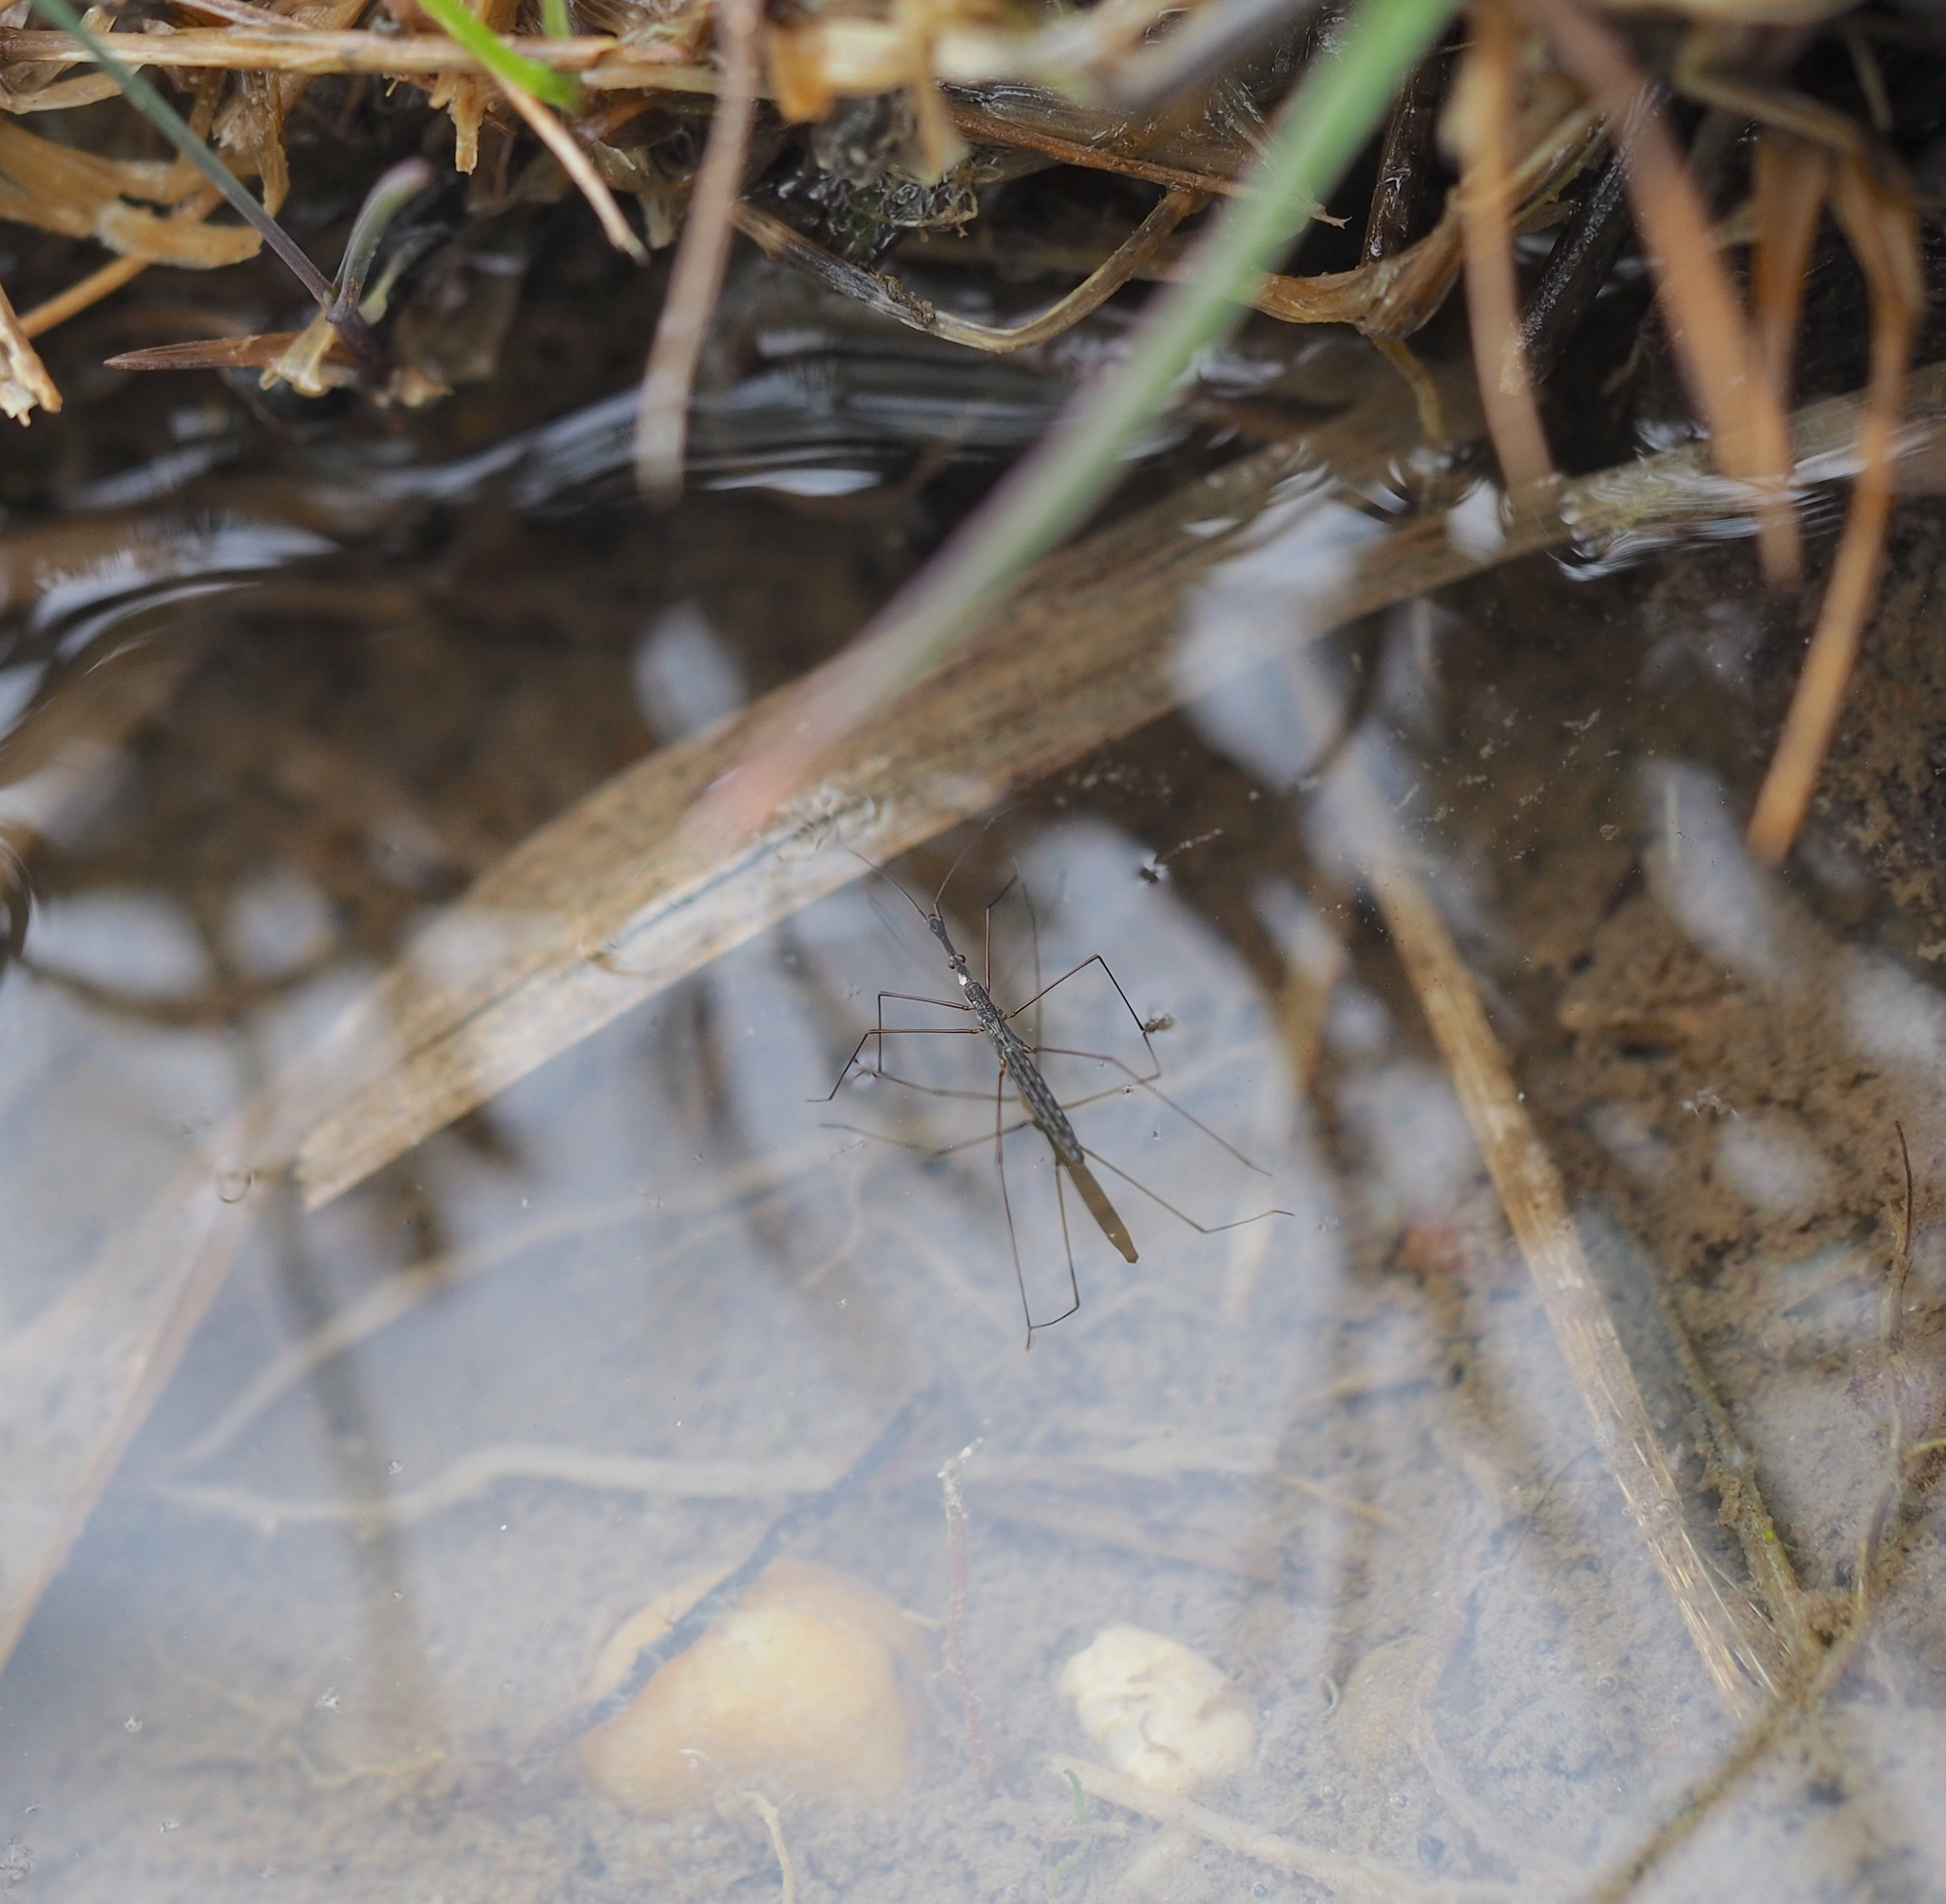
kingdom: Animalia
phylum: Arthropoda
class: Insecta
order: Hemiptera
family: Hydrometridae
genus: Hydrometra
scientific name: Hydrometra stagnorum
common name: Water measurer
